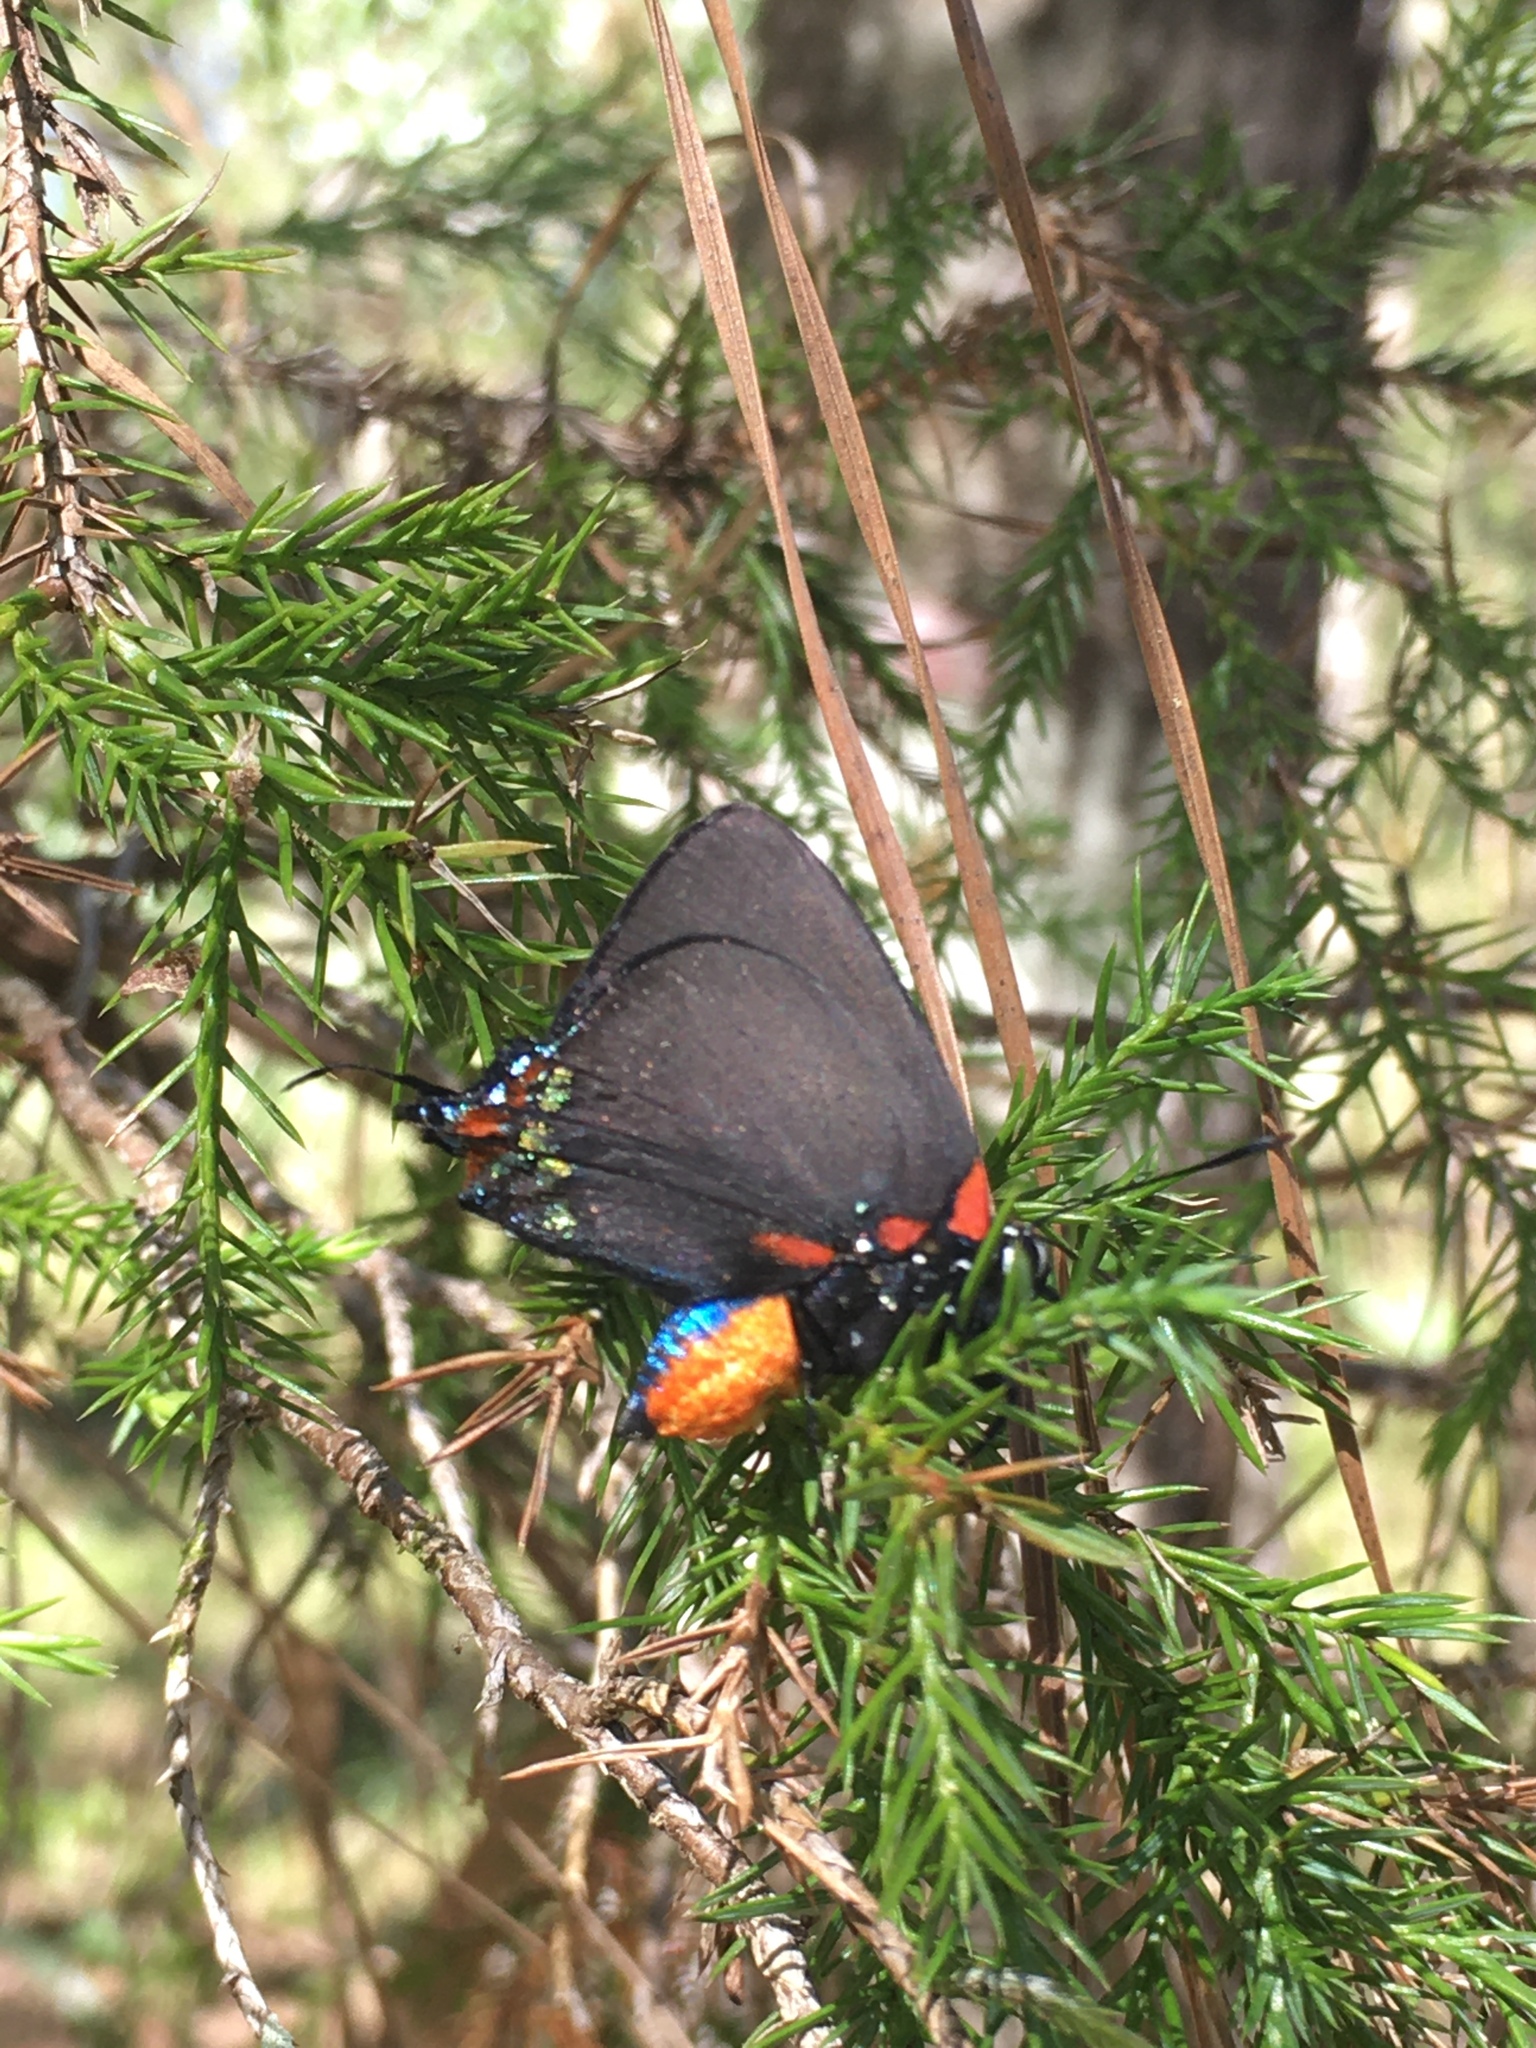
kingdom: Animalia
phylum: Arthropoda
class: Insecta
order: Lepidoptera
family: Lycaenidae
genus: Atlides
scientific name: Atlides halesus
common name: Great purple hairstreak
